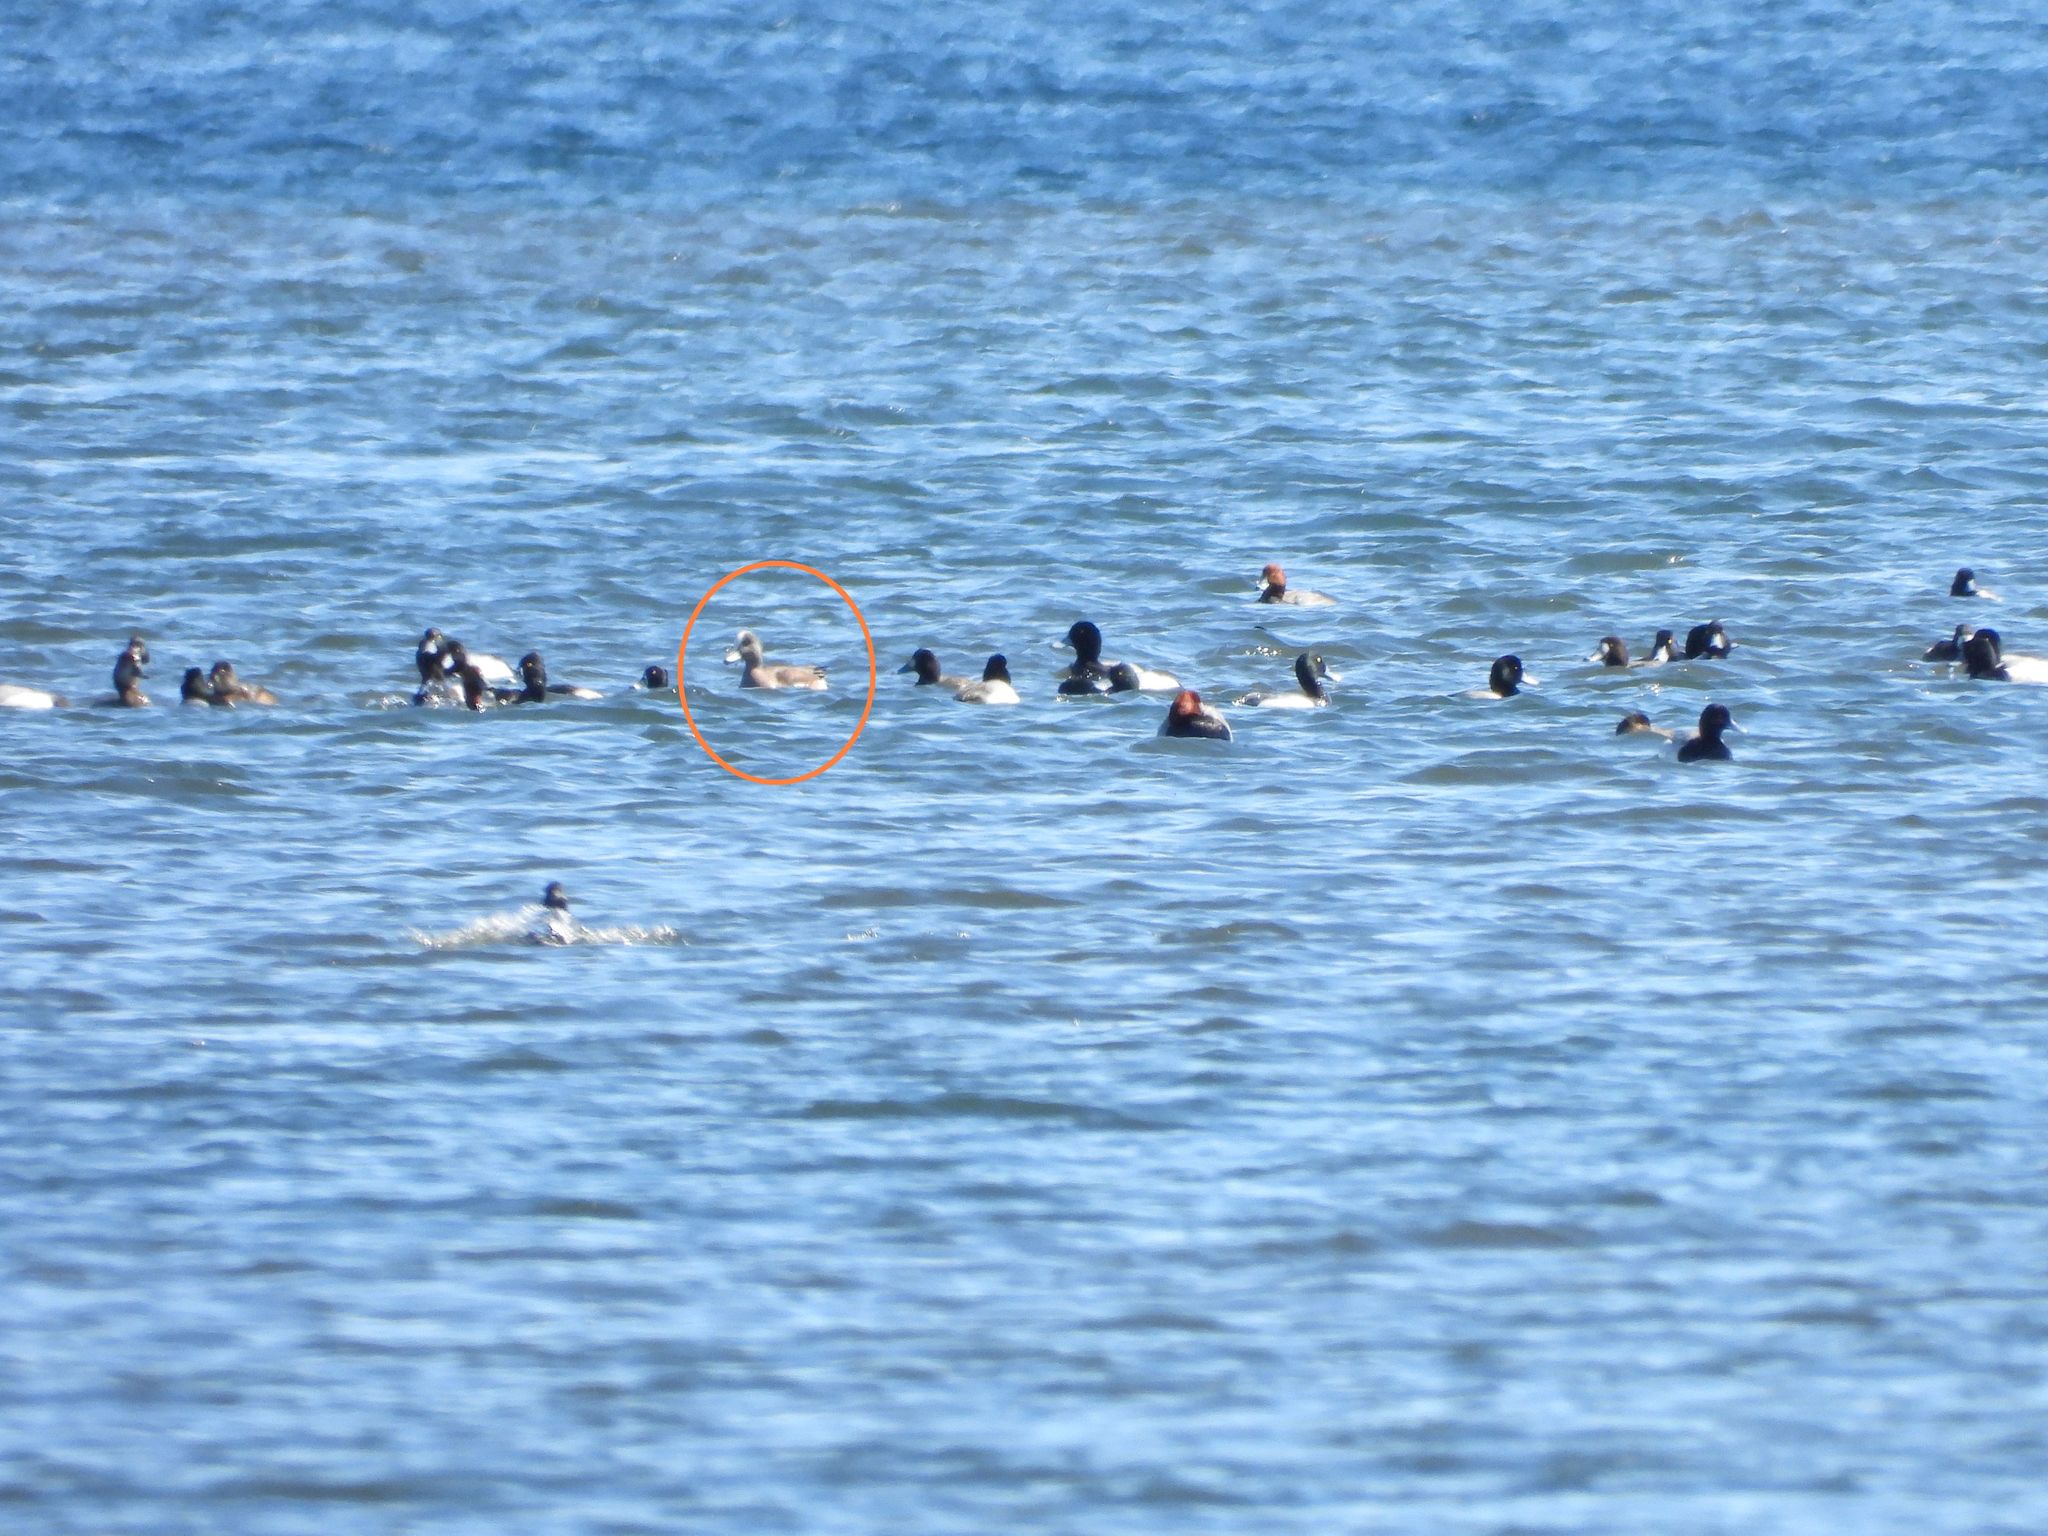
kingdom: Animalia
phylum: Chordata
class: Aves
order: Anseriformes
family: Anatidae
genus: Mareca
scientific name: Mareca americana
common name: American wigeon
